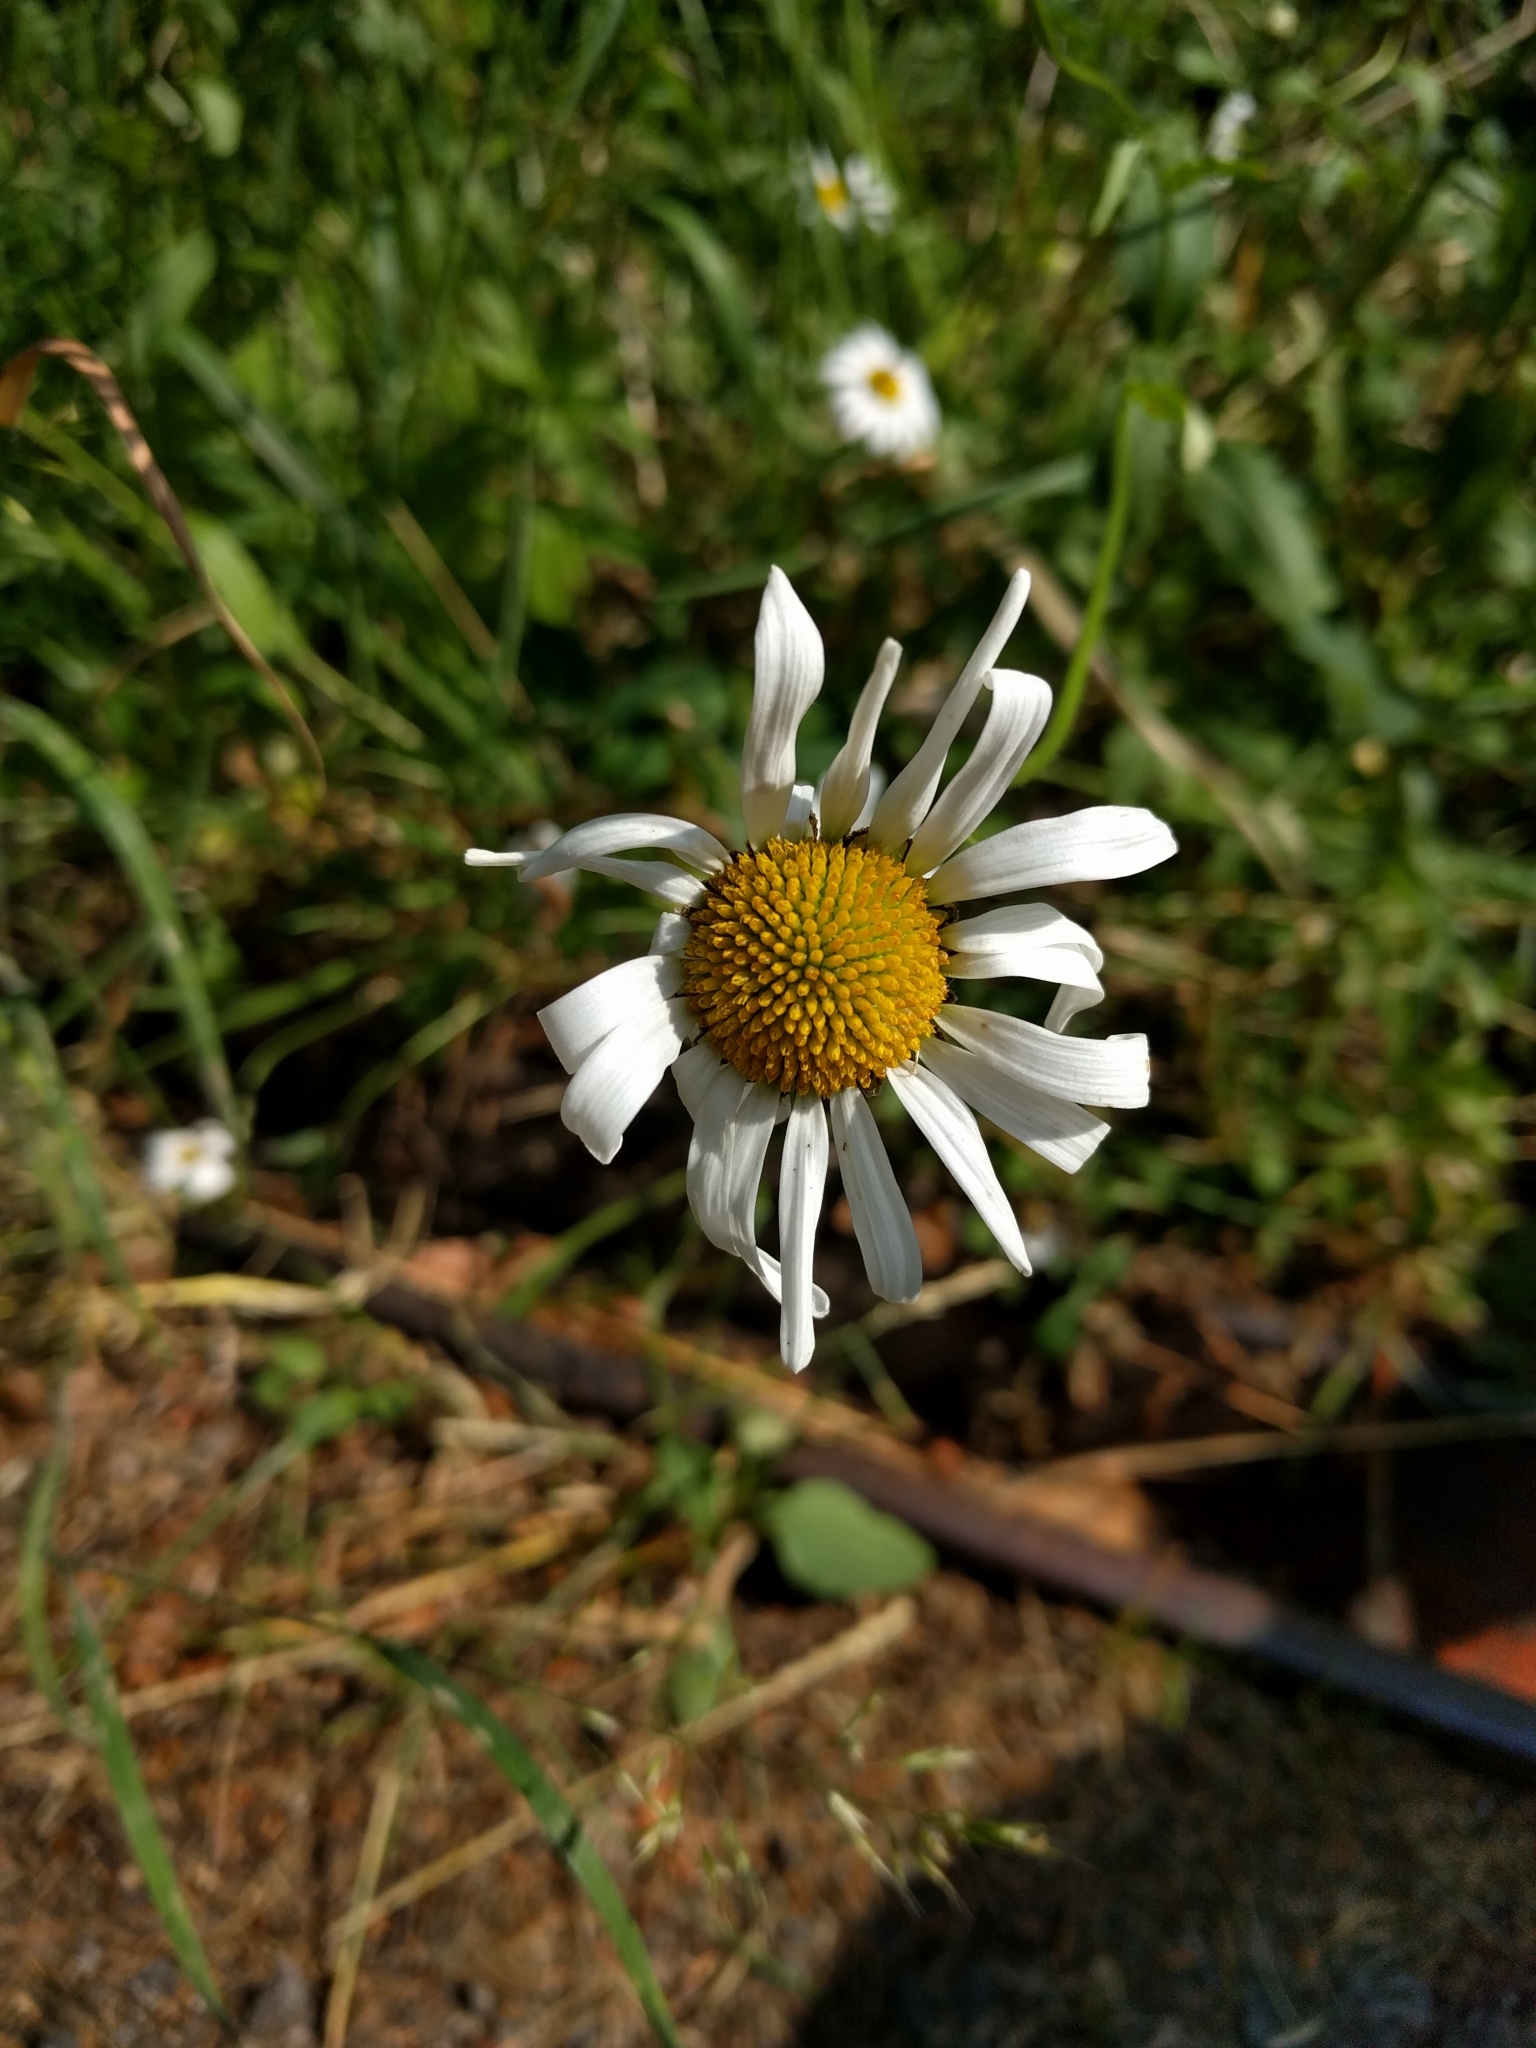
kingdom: Plantae
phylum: Tracheophyta
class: Magnoliopsida
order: Asterales
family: Asteraceae
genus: Leucanthemum
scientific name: Leucanthemum vulgare
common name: Oxeye daisy
